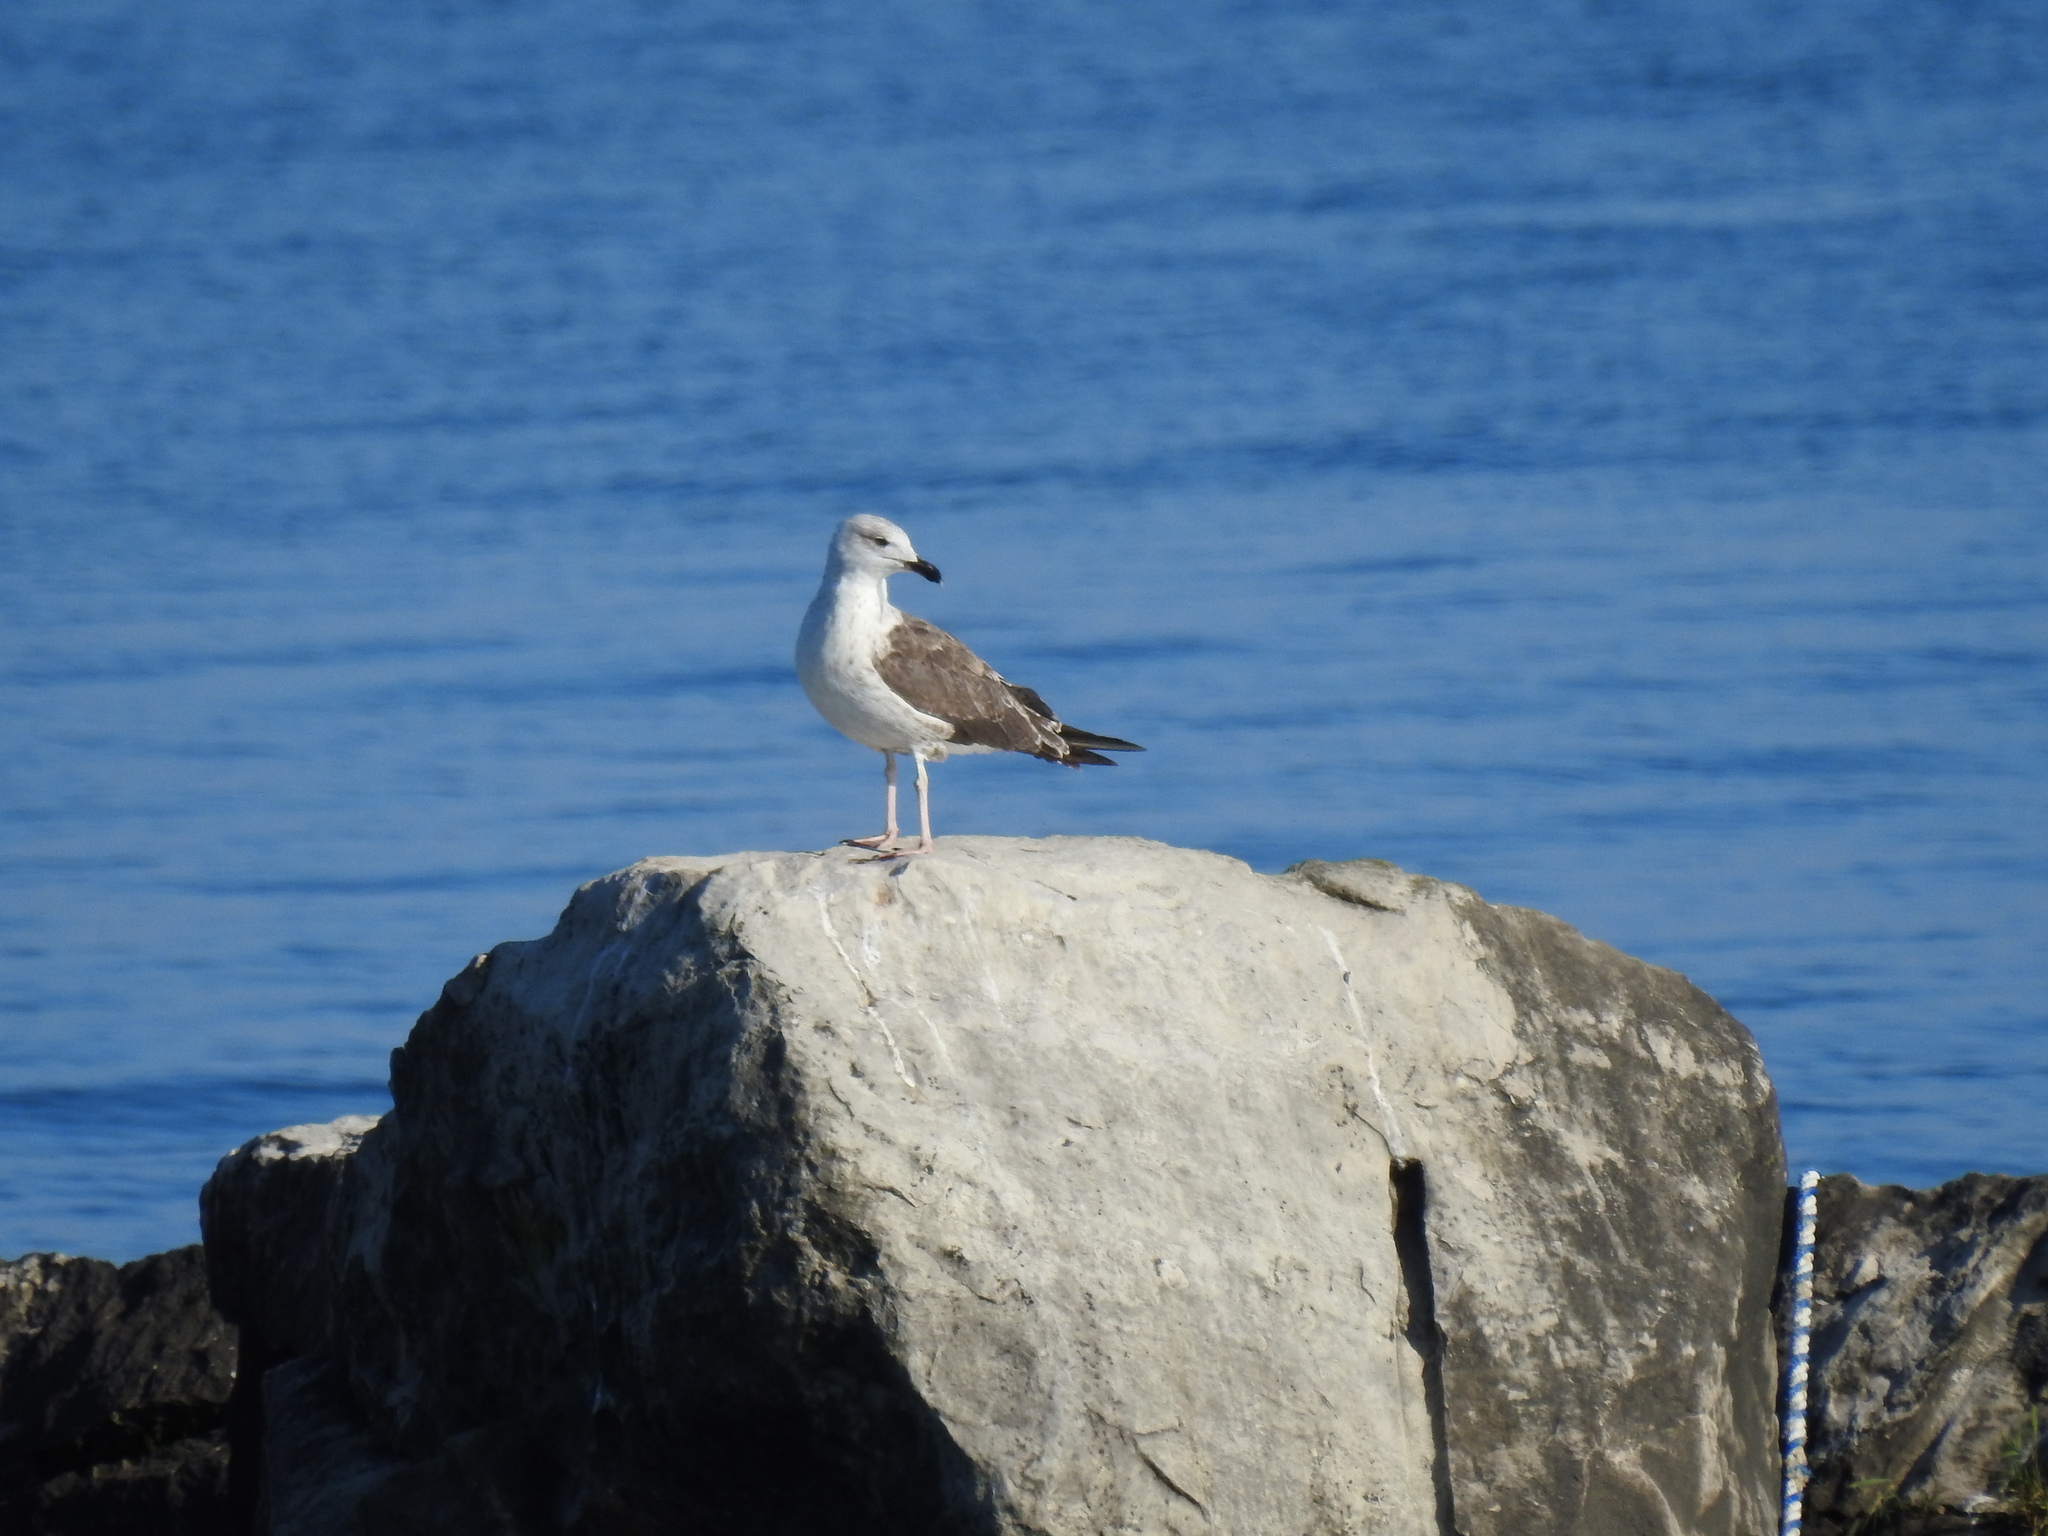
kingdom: Animalia
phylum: Chordata
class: Aves
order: Charadriiformes
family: Laridae
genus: Larus
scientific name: Larus marinus
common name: Great black-backed gull
